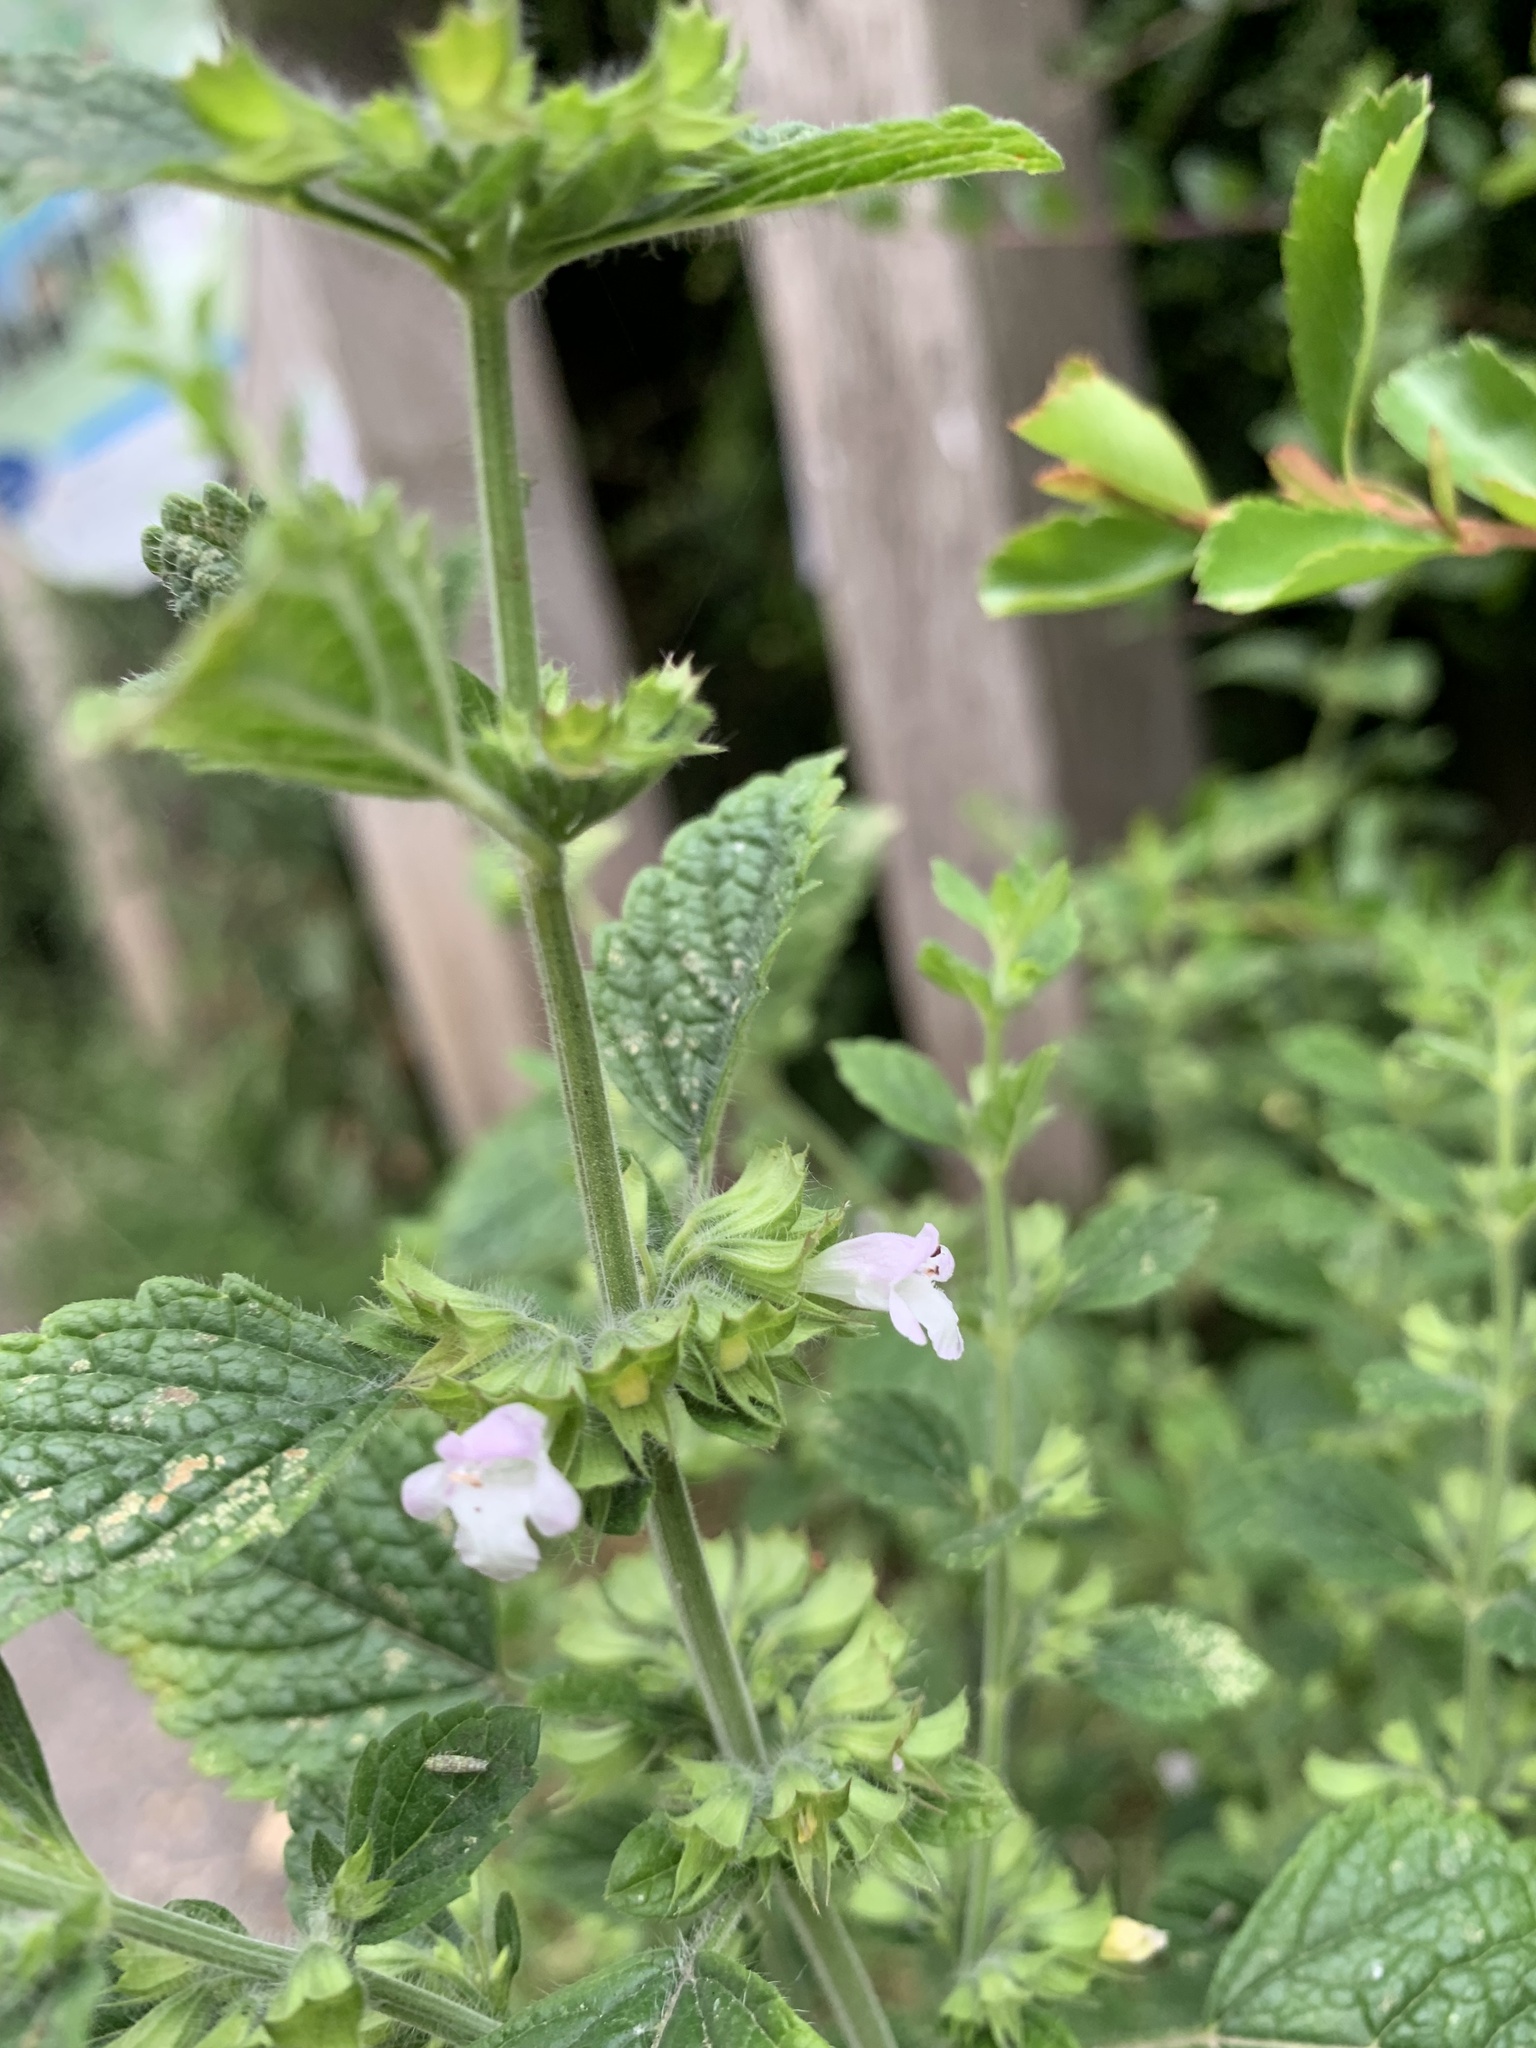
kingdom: Plantae
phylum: Tracheophyta
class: Magnoliopsida
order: Lamiales
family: Lamiaceae
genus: Melissa
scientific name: Melissa officinalis
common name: Balm
